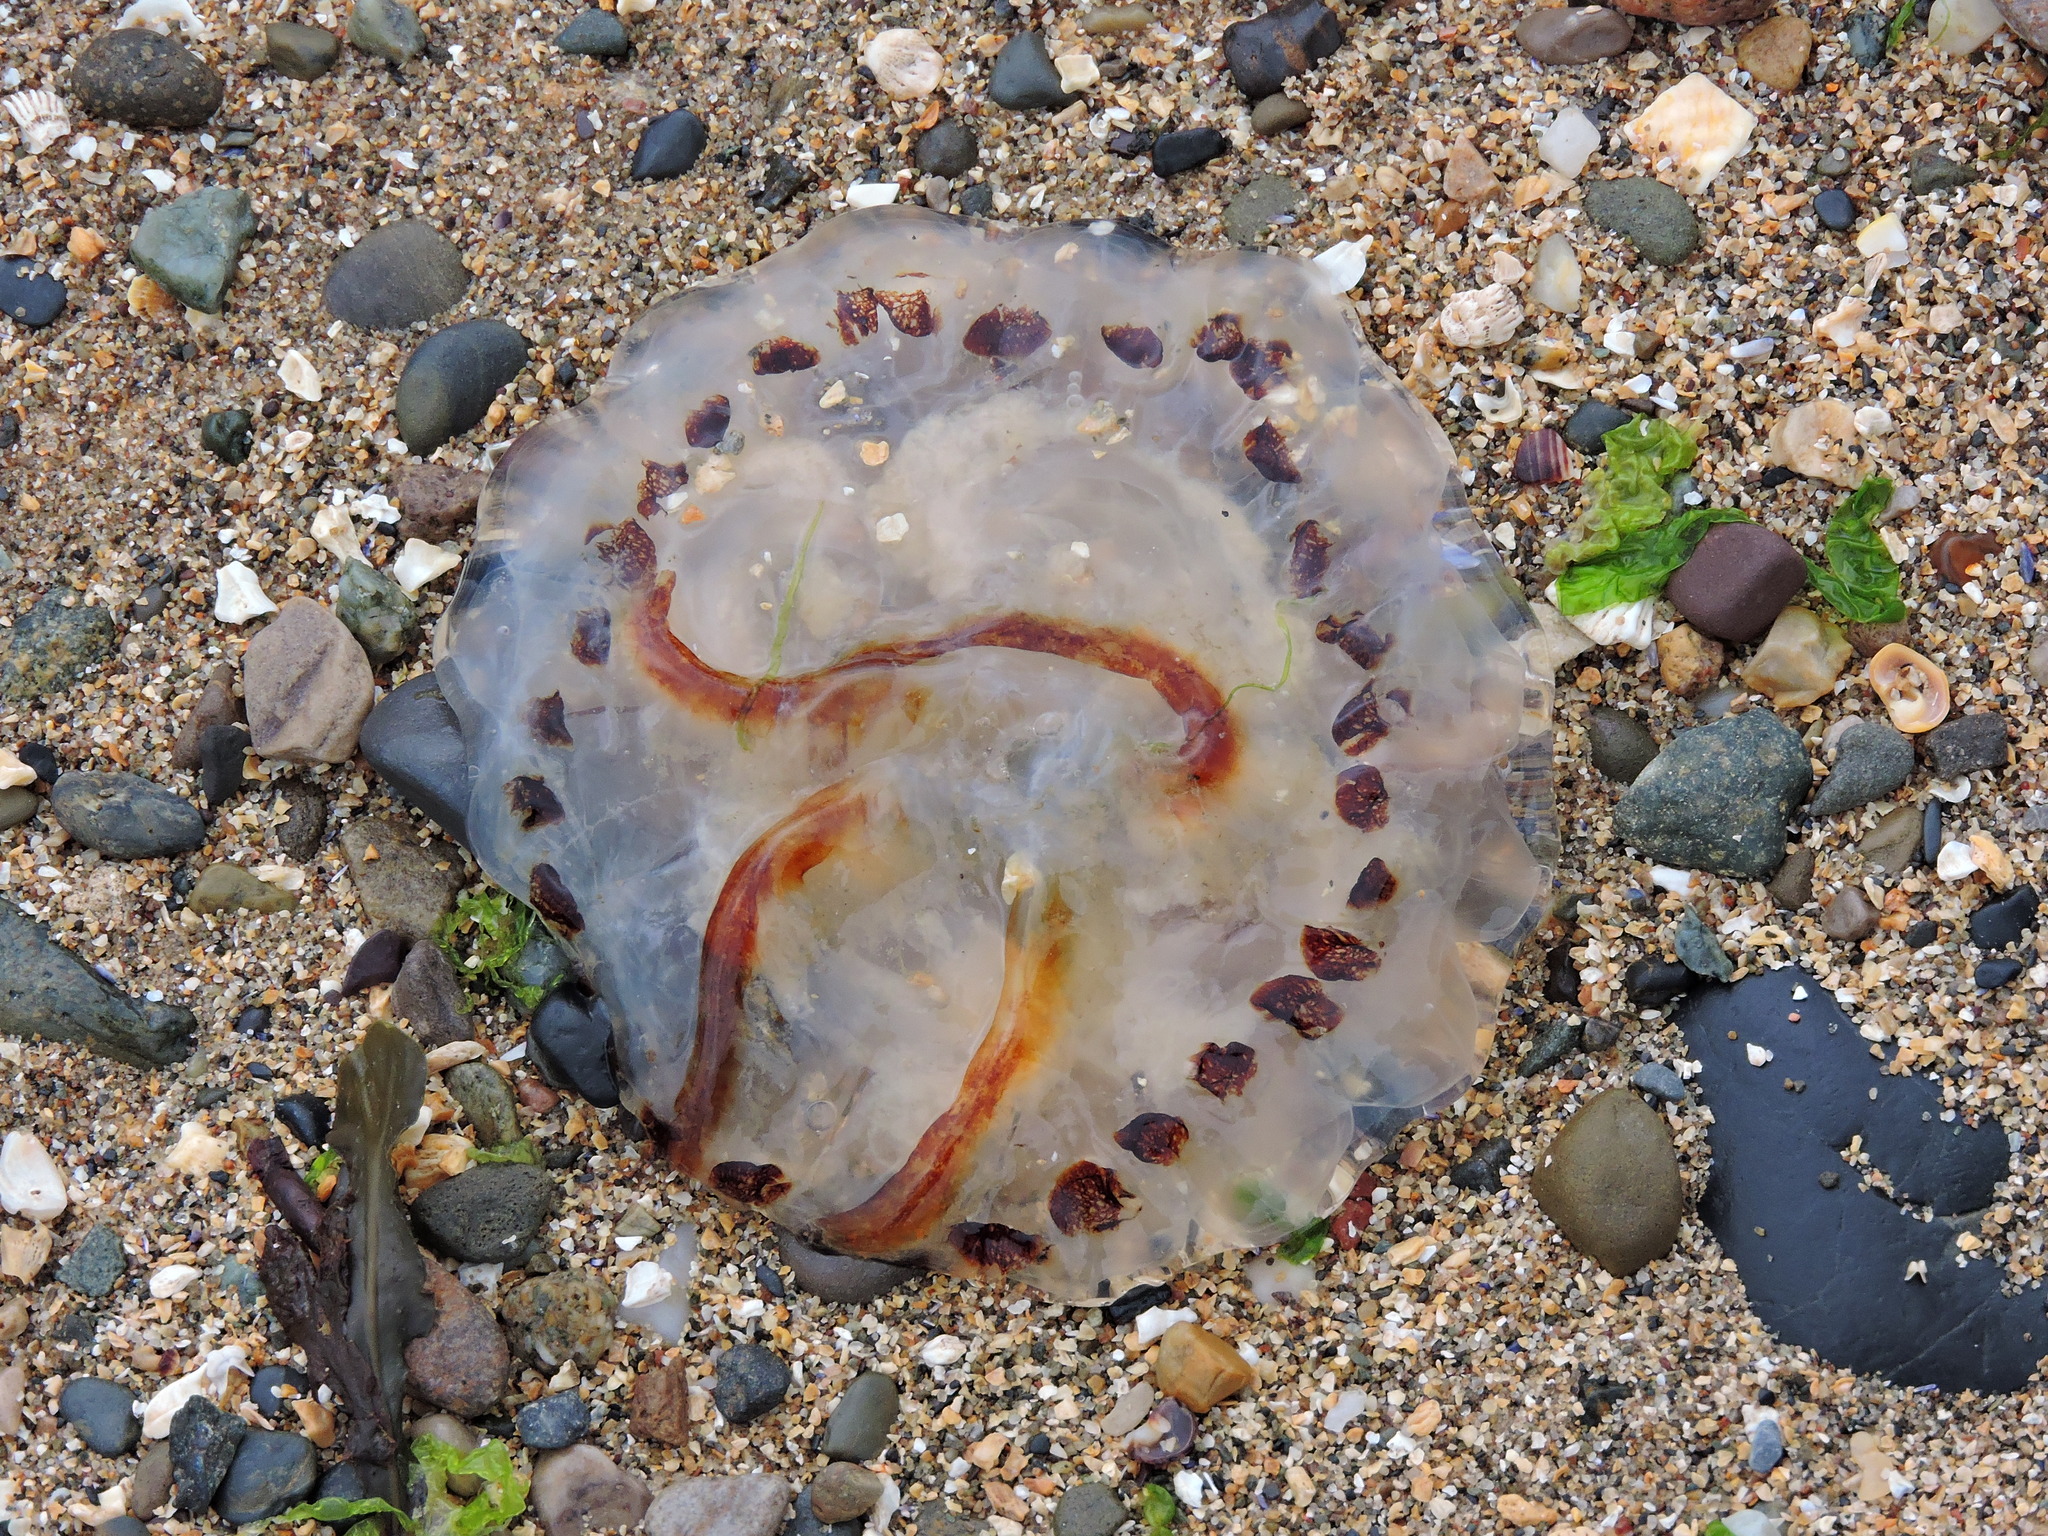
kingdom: Animalia
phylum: Cnidaria
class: Scyphozoa
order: Semaeostomeae
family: Pelagiidae
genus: Chrysaora
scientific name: Chrysaora hysoscella
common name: Compass jellyfish
